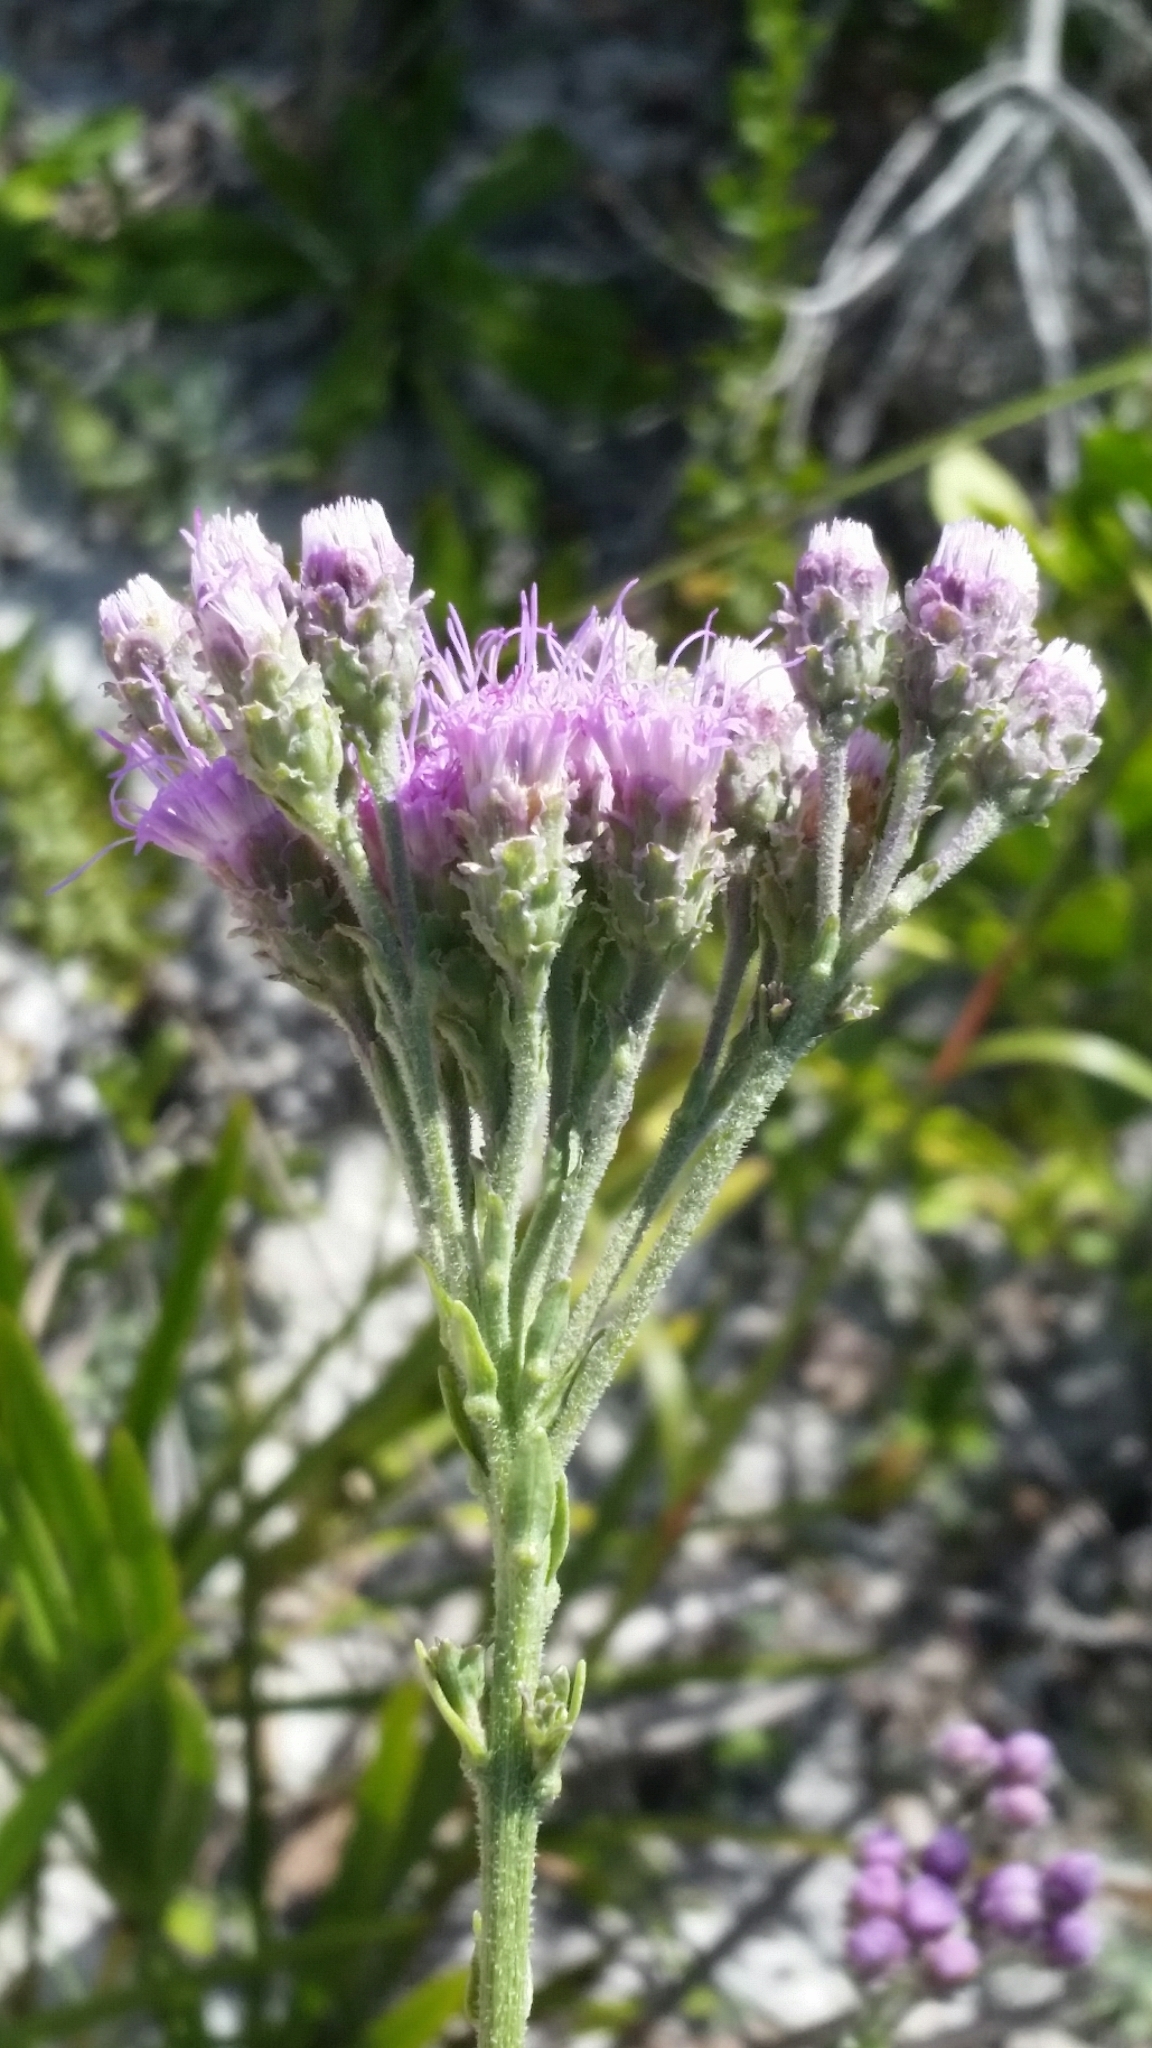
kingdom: Plantae
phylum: Tracheophyta
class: Magnoliopsida
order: Asterales
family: Asteraceae
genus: Carphephorus
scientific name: Carphephorus corymbosus
